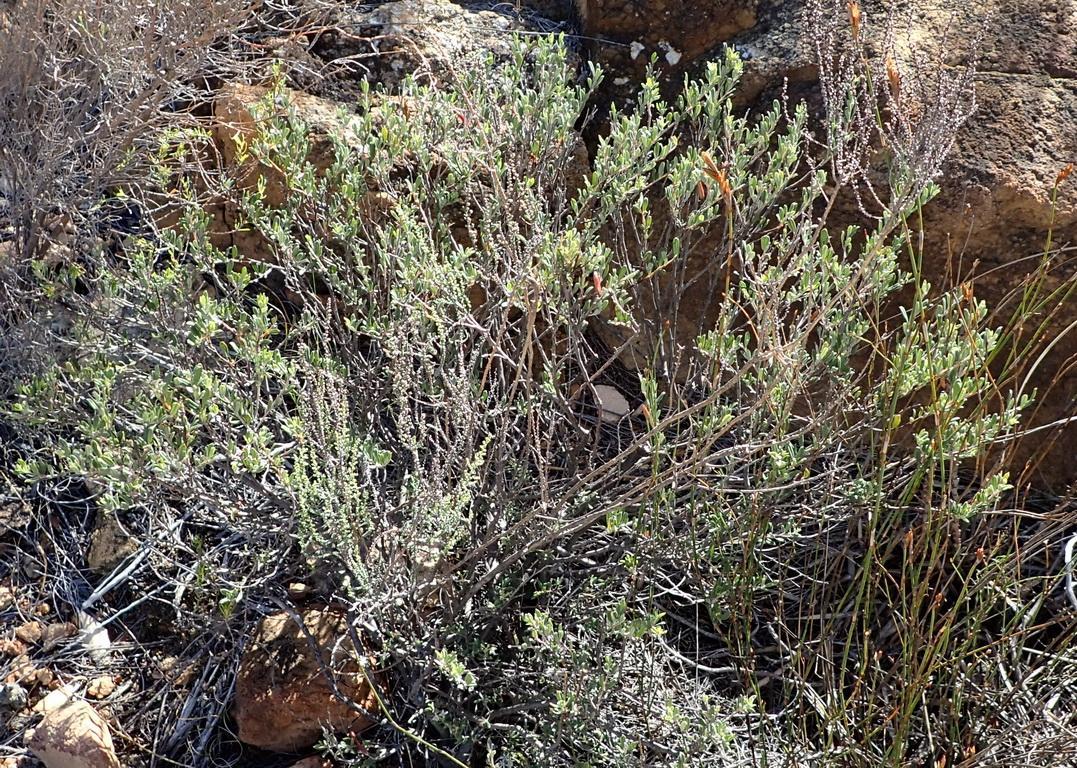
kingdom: Plantae
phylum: Tracheophyta
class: Magnoliopsida
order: Fabales
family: Fabaceae
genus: Indigofera
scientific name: Indigofera
